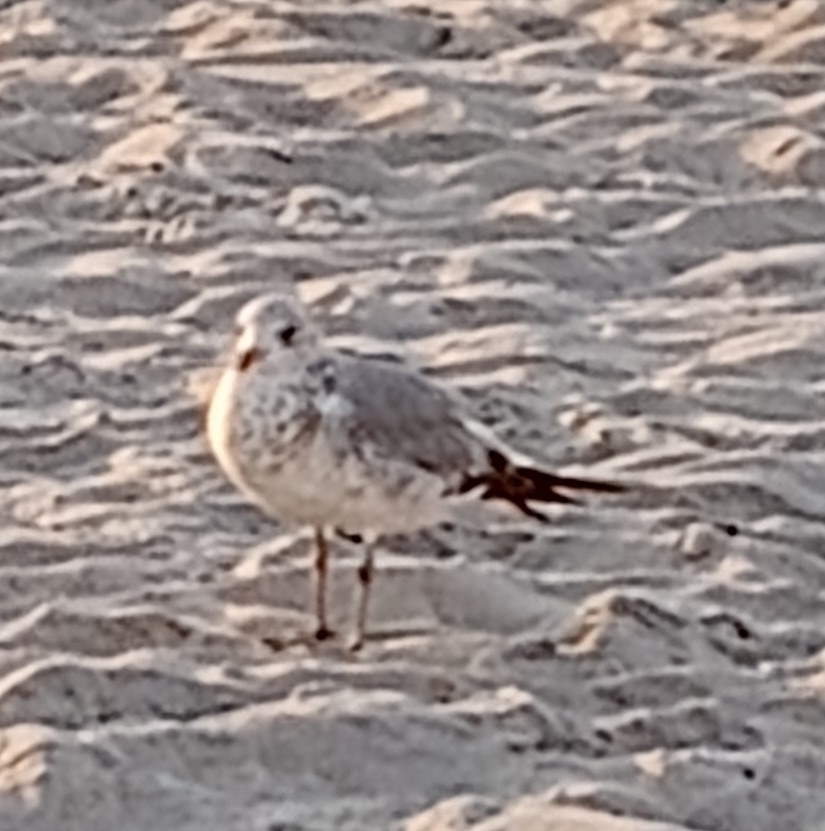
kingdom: Animalia
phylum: Chordata
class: Aves
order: Charadriiformes
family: Laridae
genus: Larus
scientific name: Larus delawarensis
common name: Ring-billed gull
